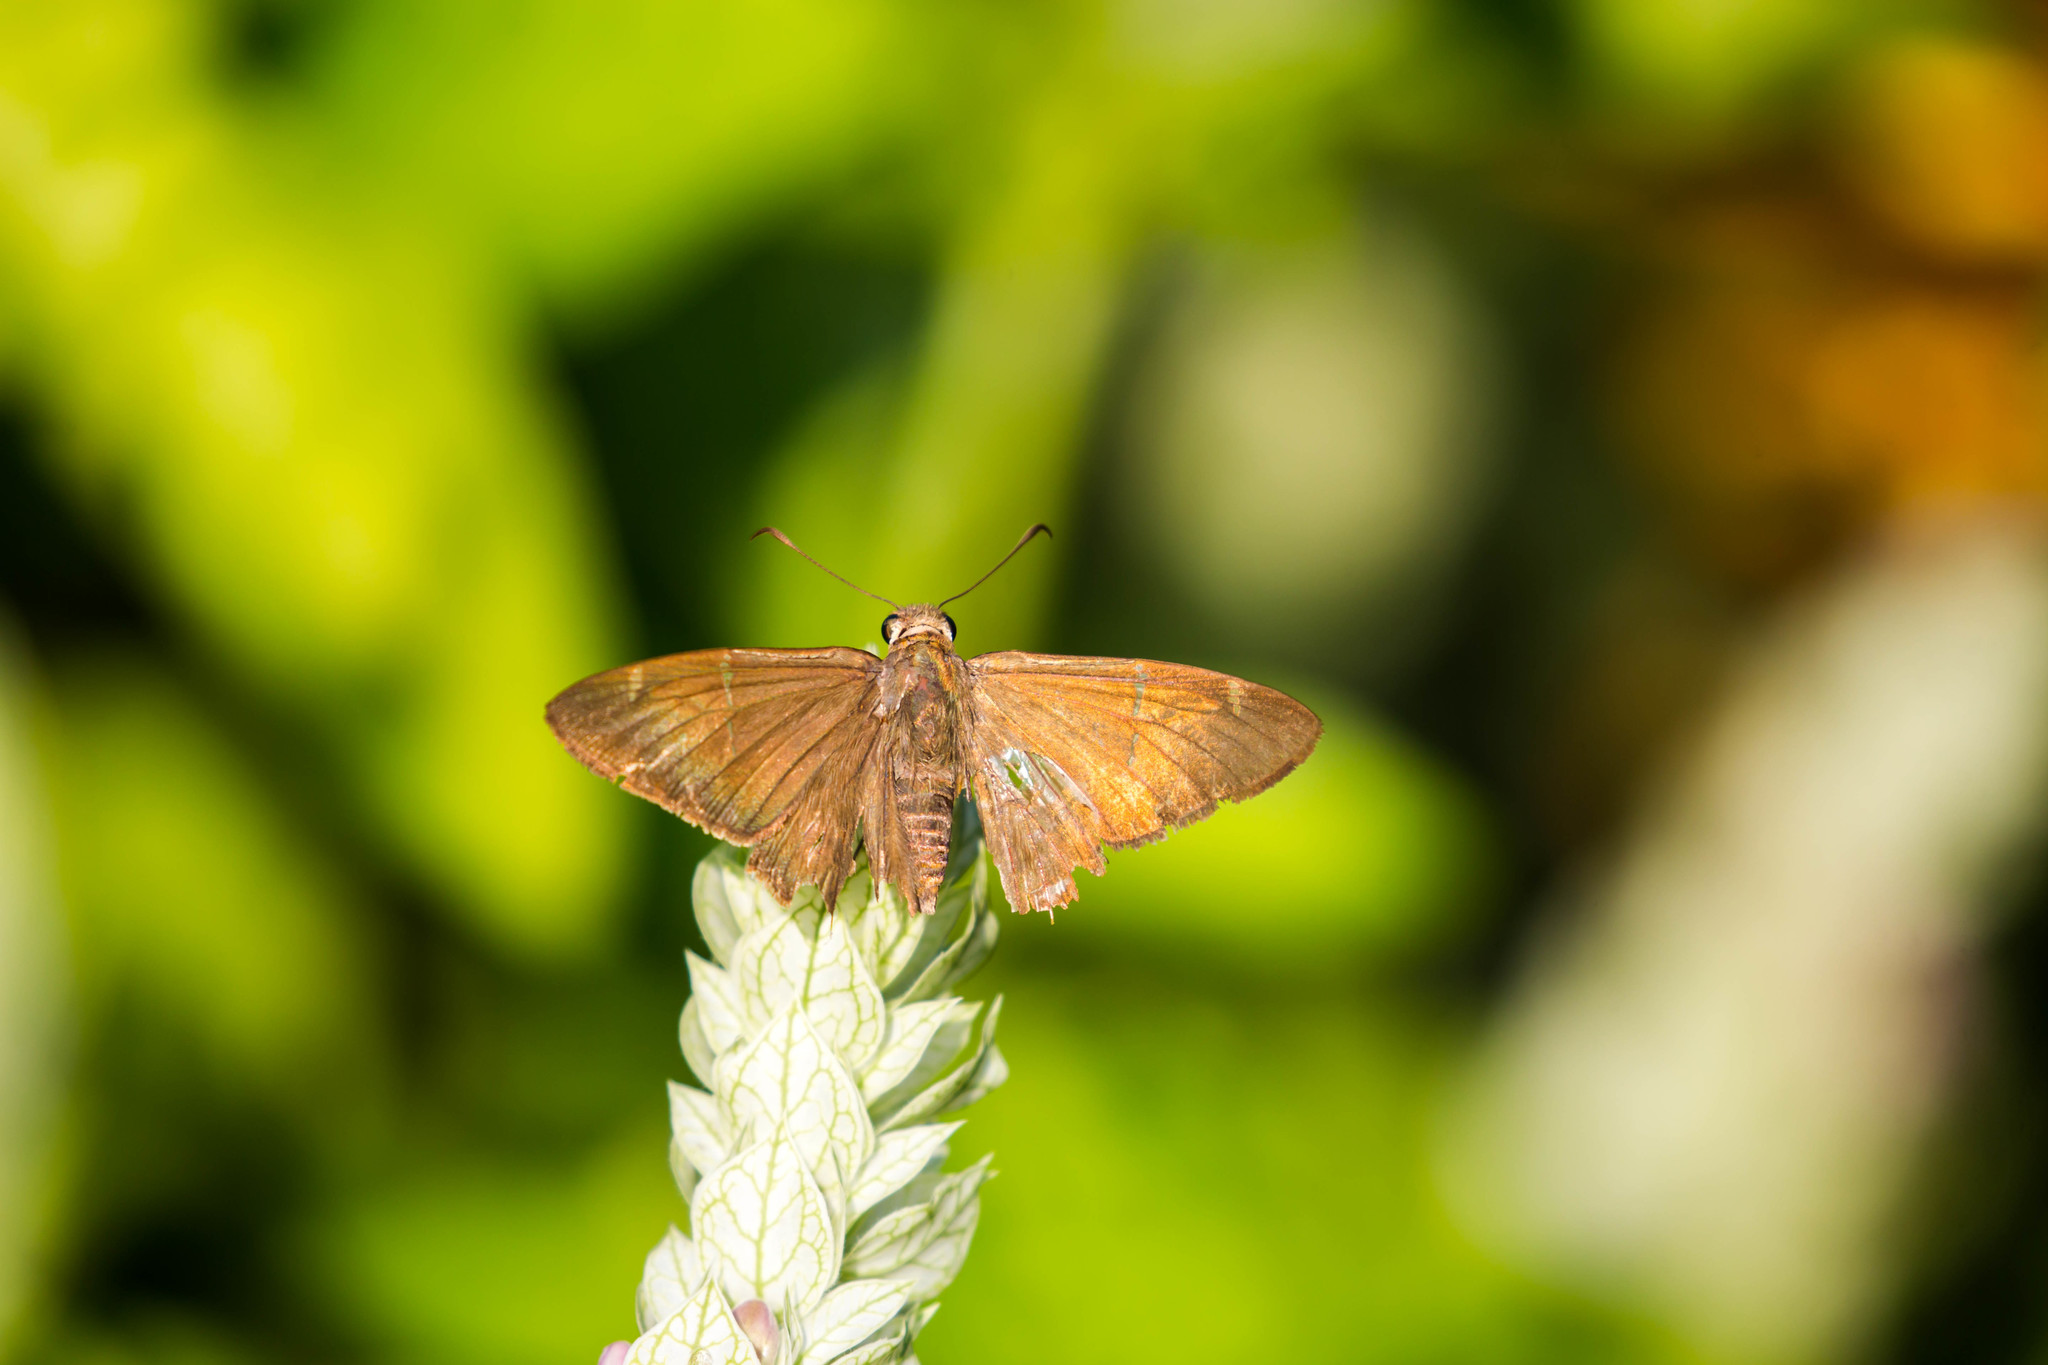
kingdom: Animalia
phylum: Arthropoda
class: Insecta
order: Lepidoptera
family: Hesperiidae
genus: Urbanus
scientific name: Urbanus procne
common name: Brown longtail
